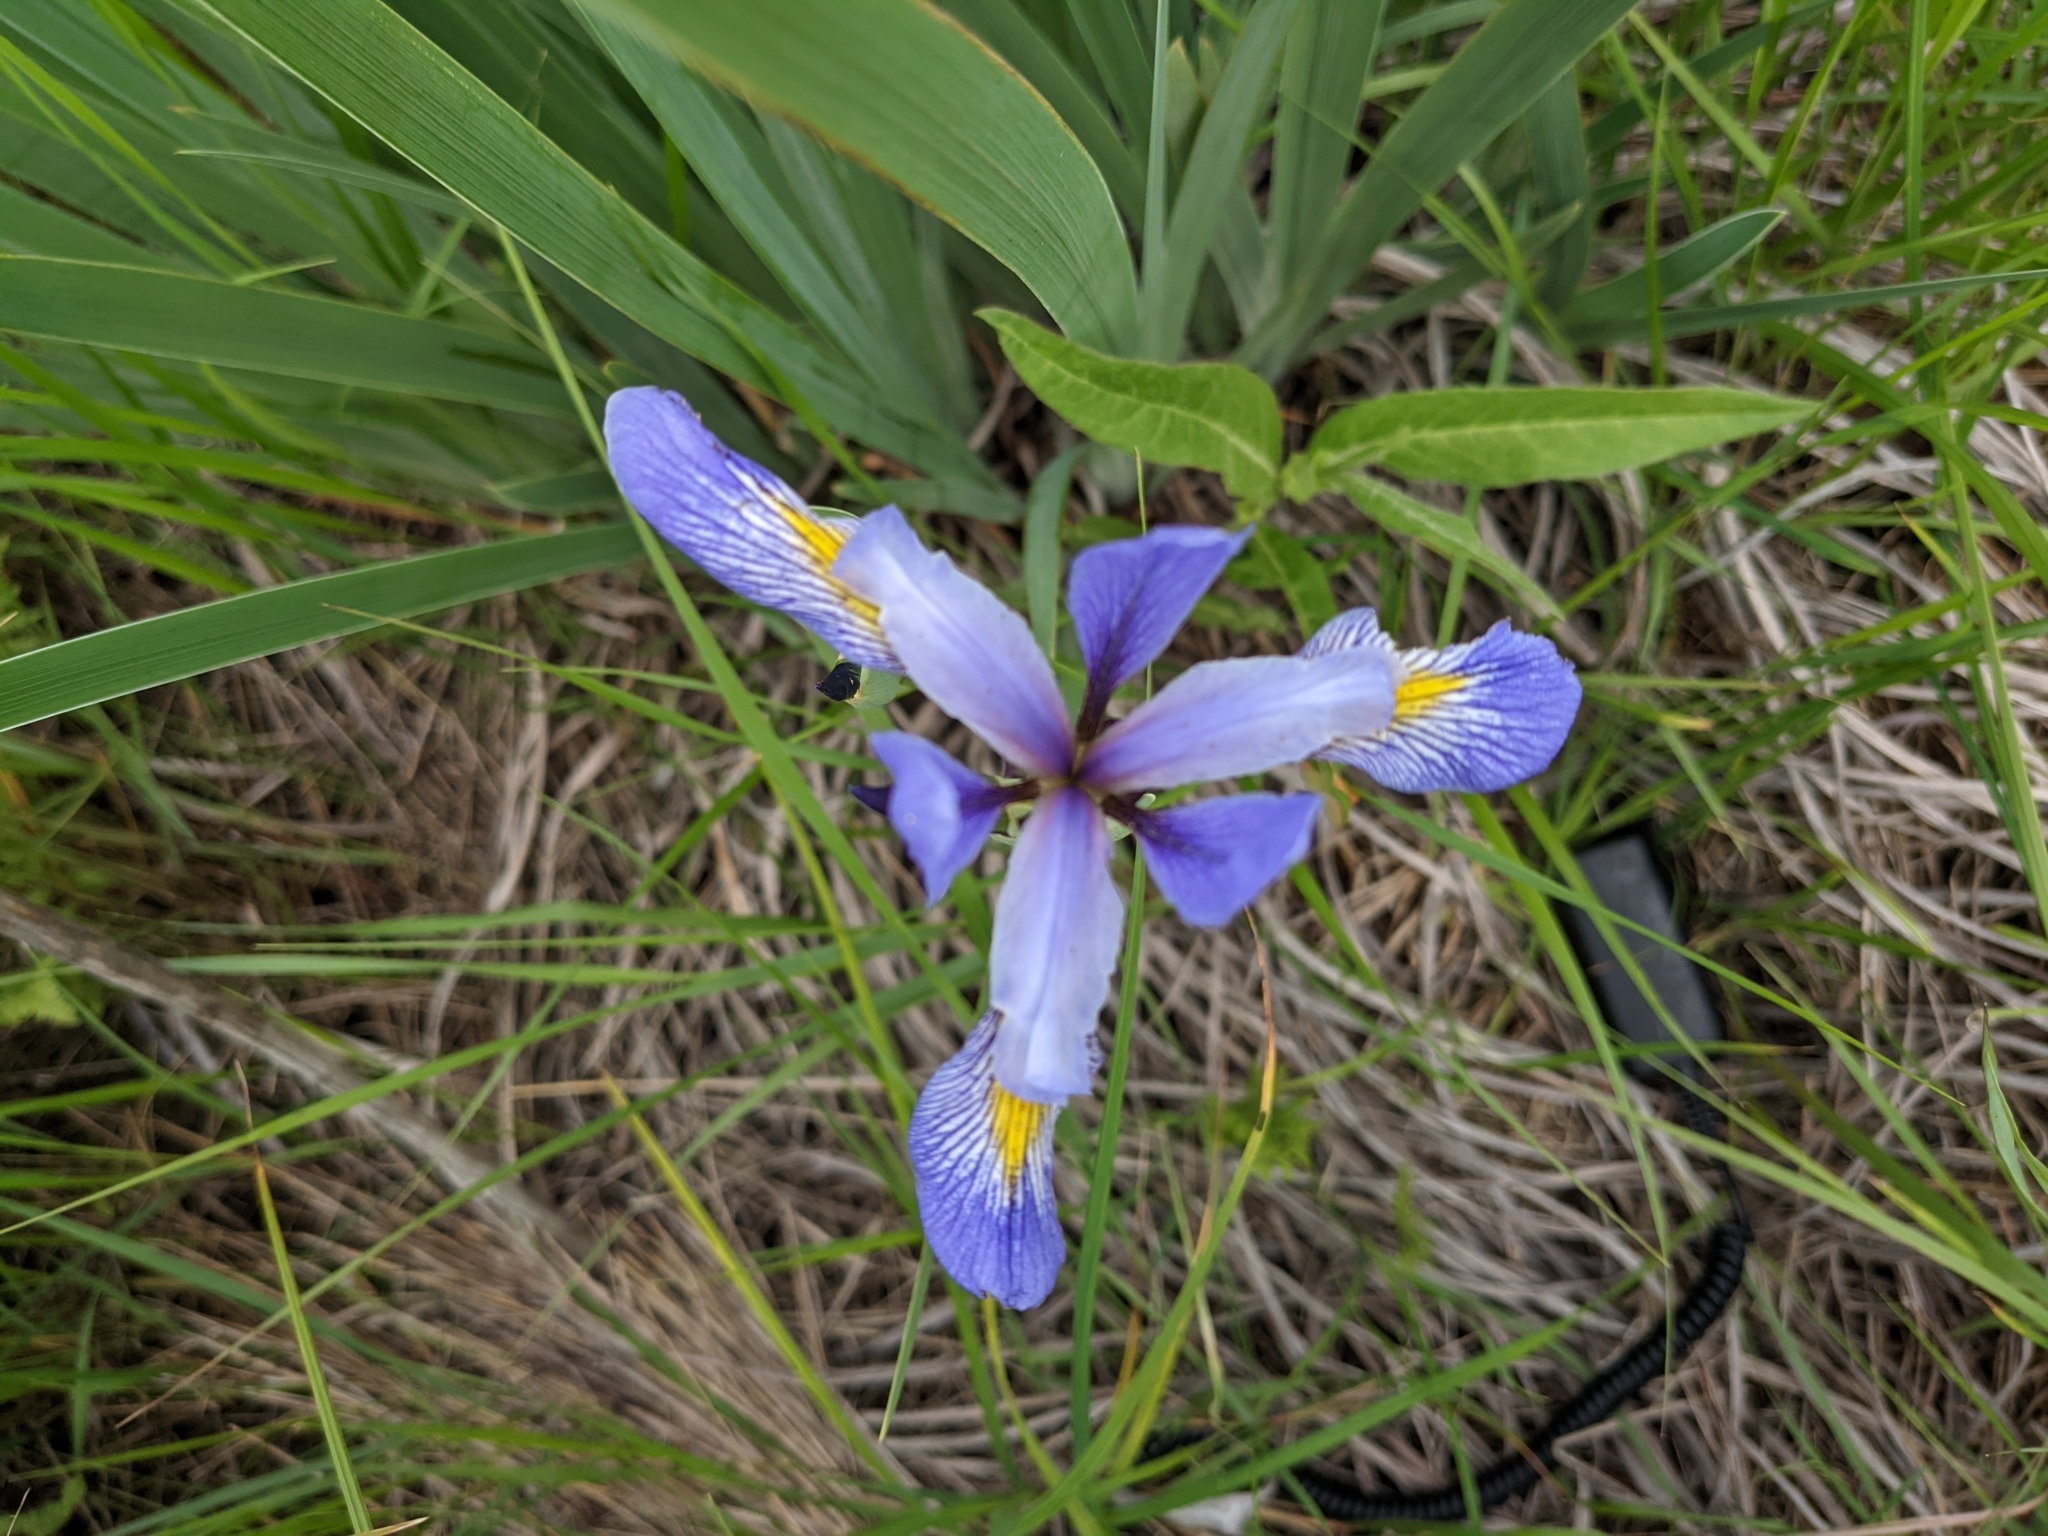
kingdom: Plantae
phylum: Tracheophyta
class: Liliopsida
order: Asparagales
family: Iridaceae
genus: Iris
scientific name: Iris virginica
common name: Southern blue flag
